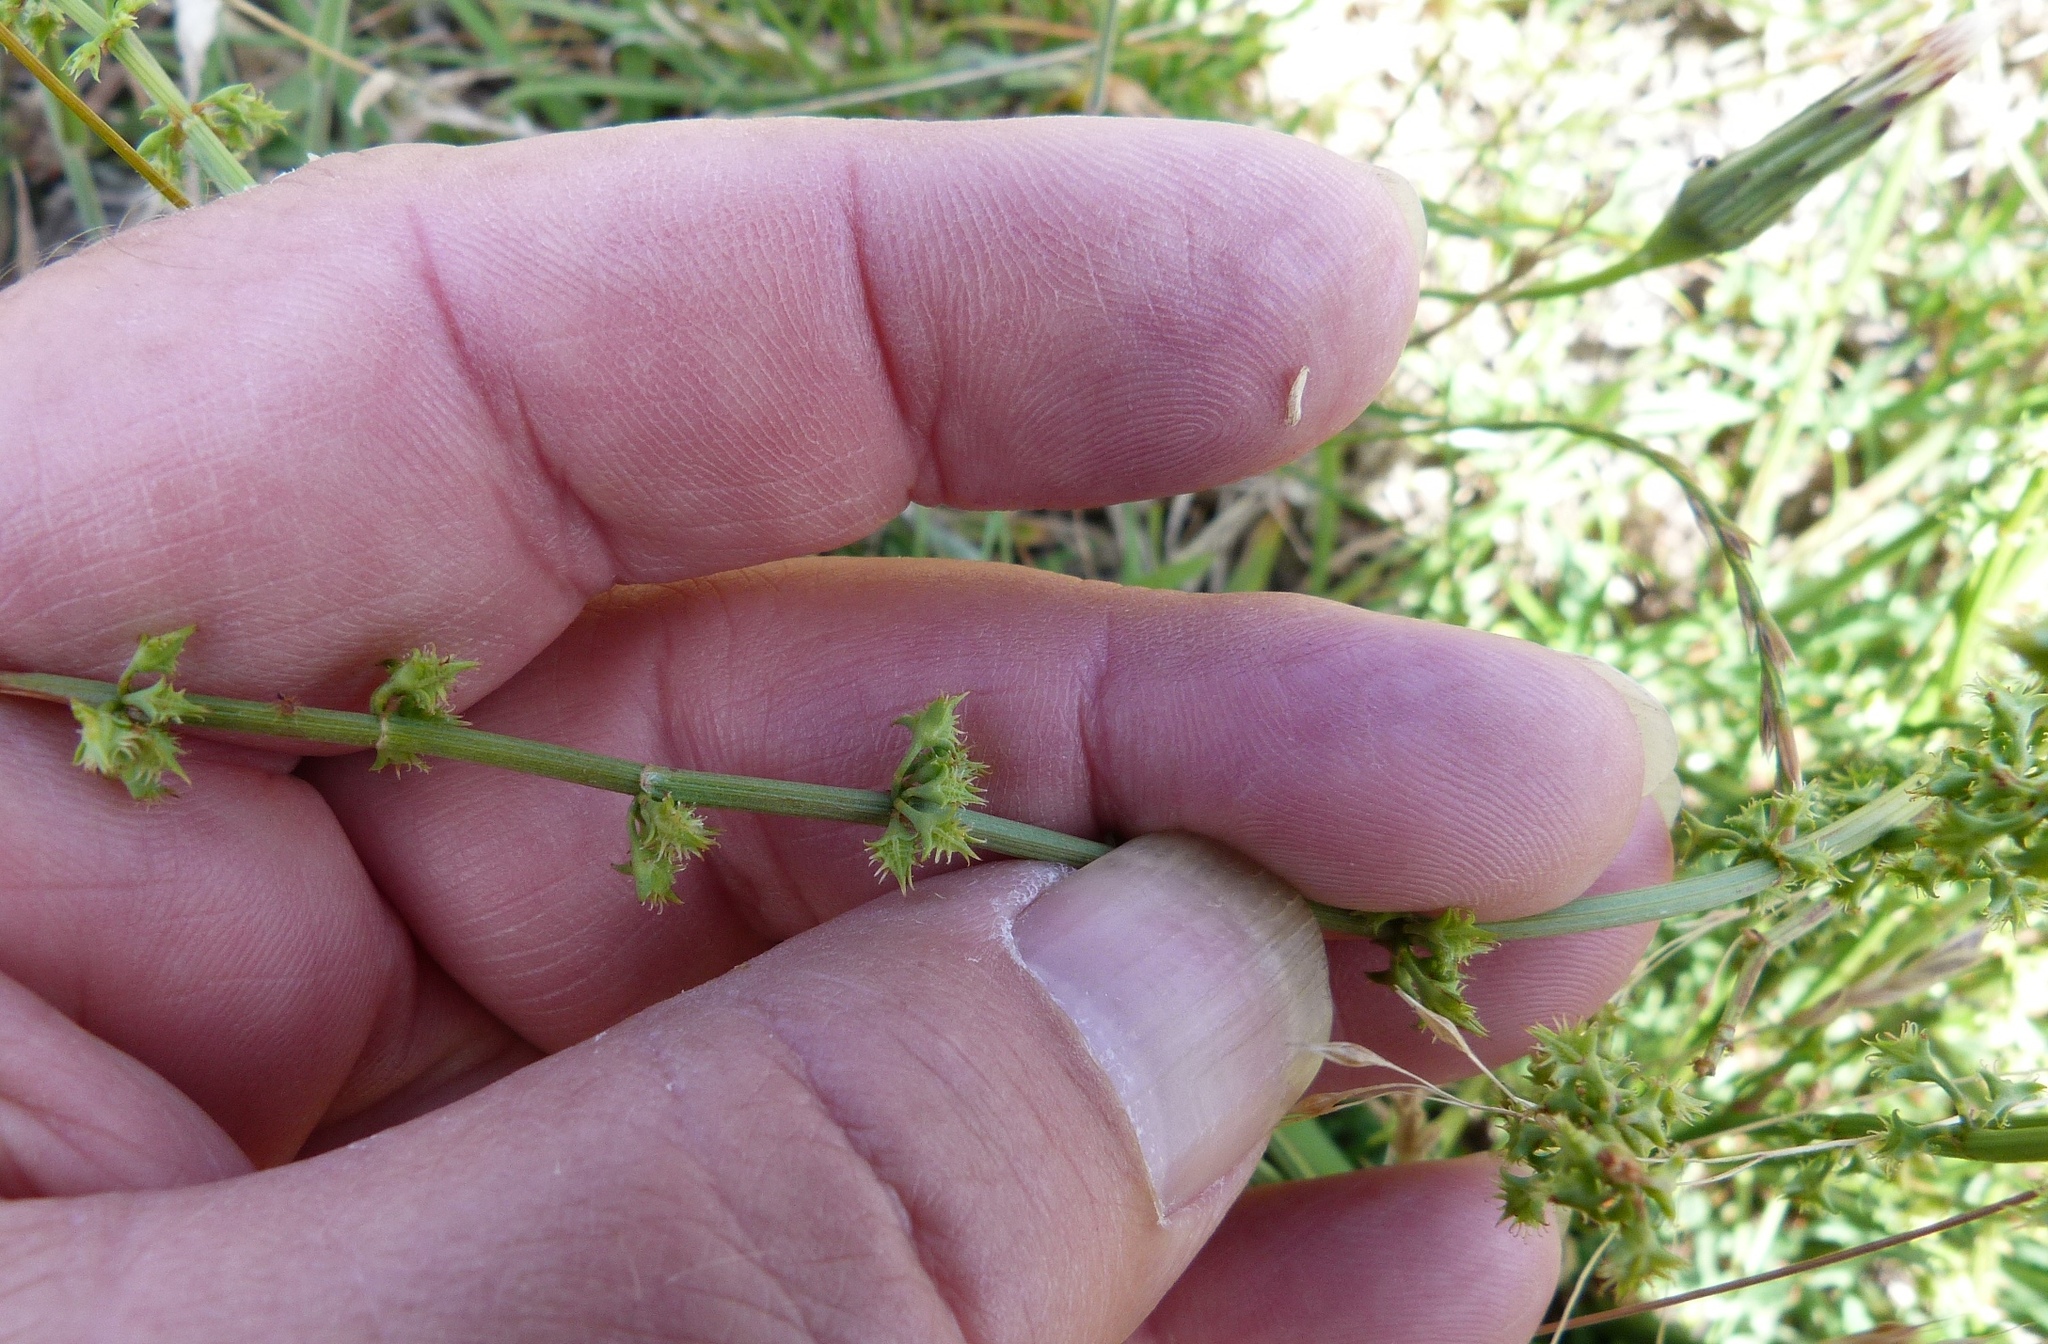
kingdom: Plantae
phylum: Tracheophyta
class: Magnoliopsida
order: Caryophyllales
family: Polygonaceae
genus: Rumex
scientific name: Rumex brownii
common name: Hooked dock
